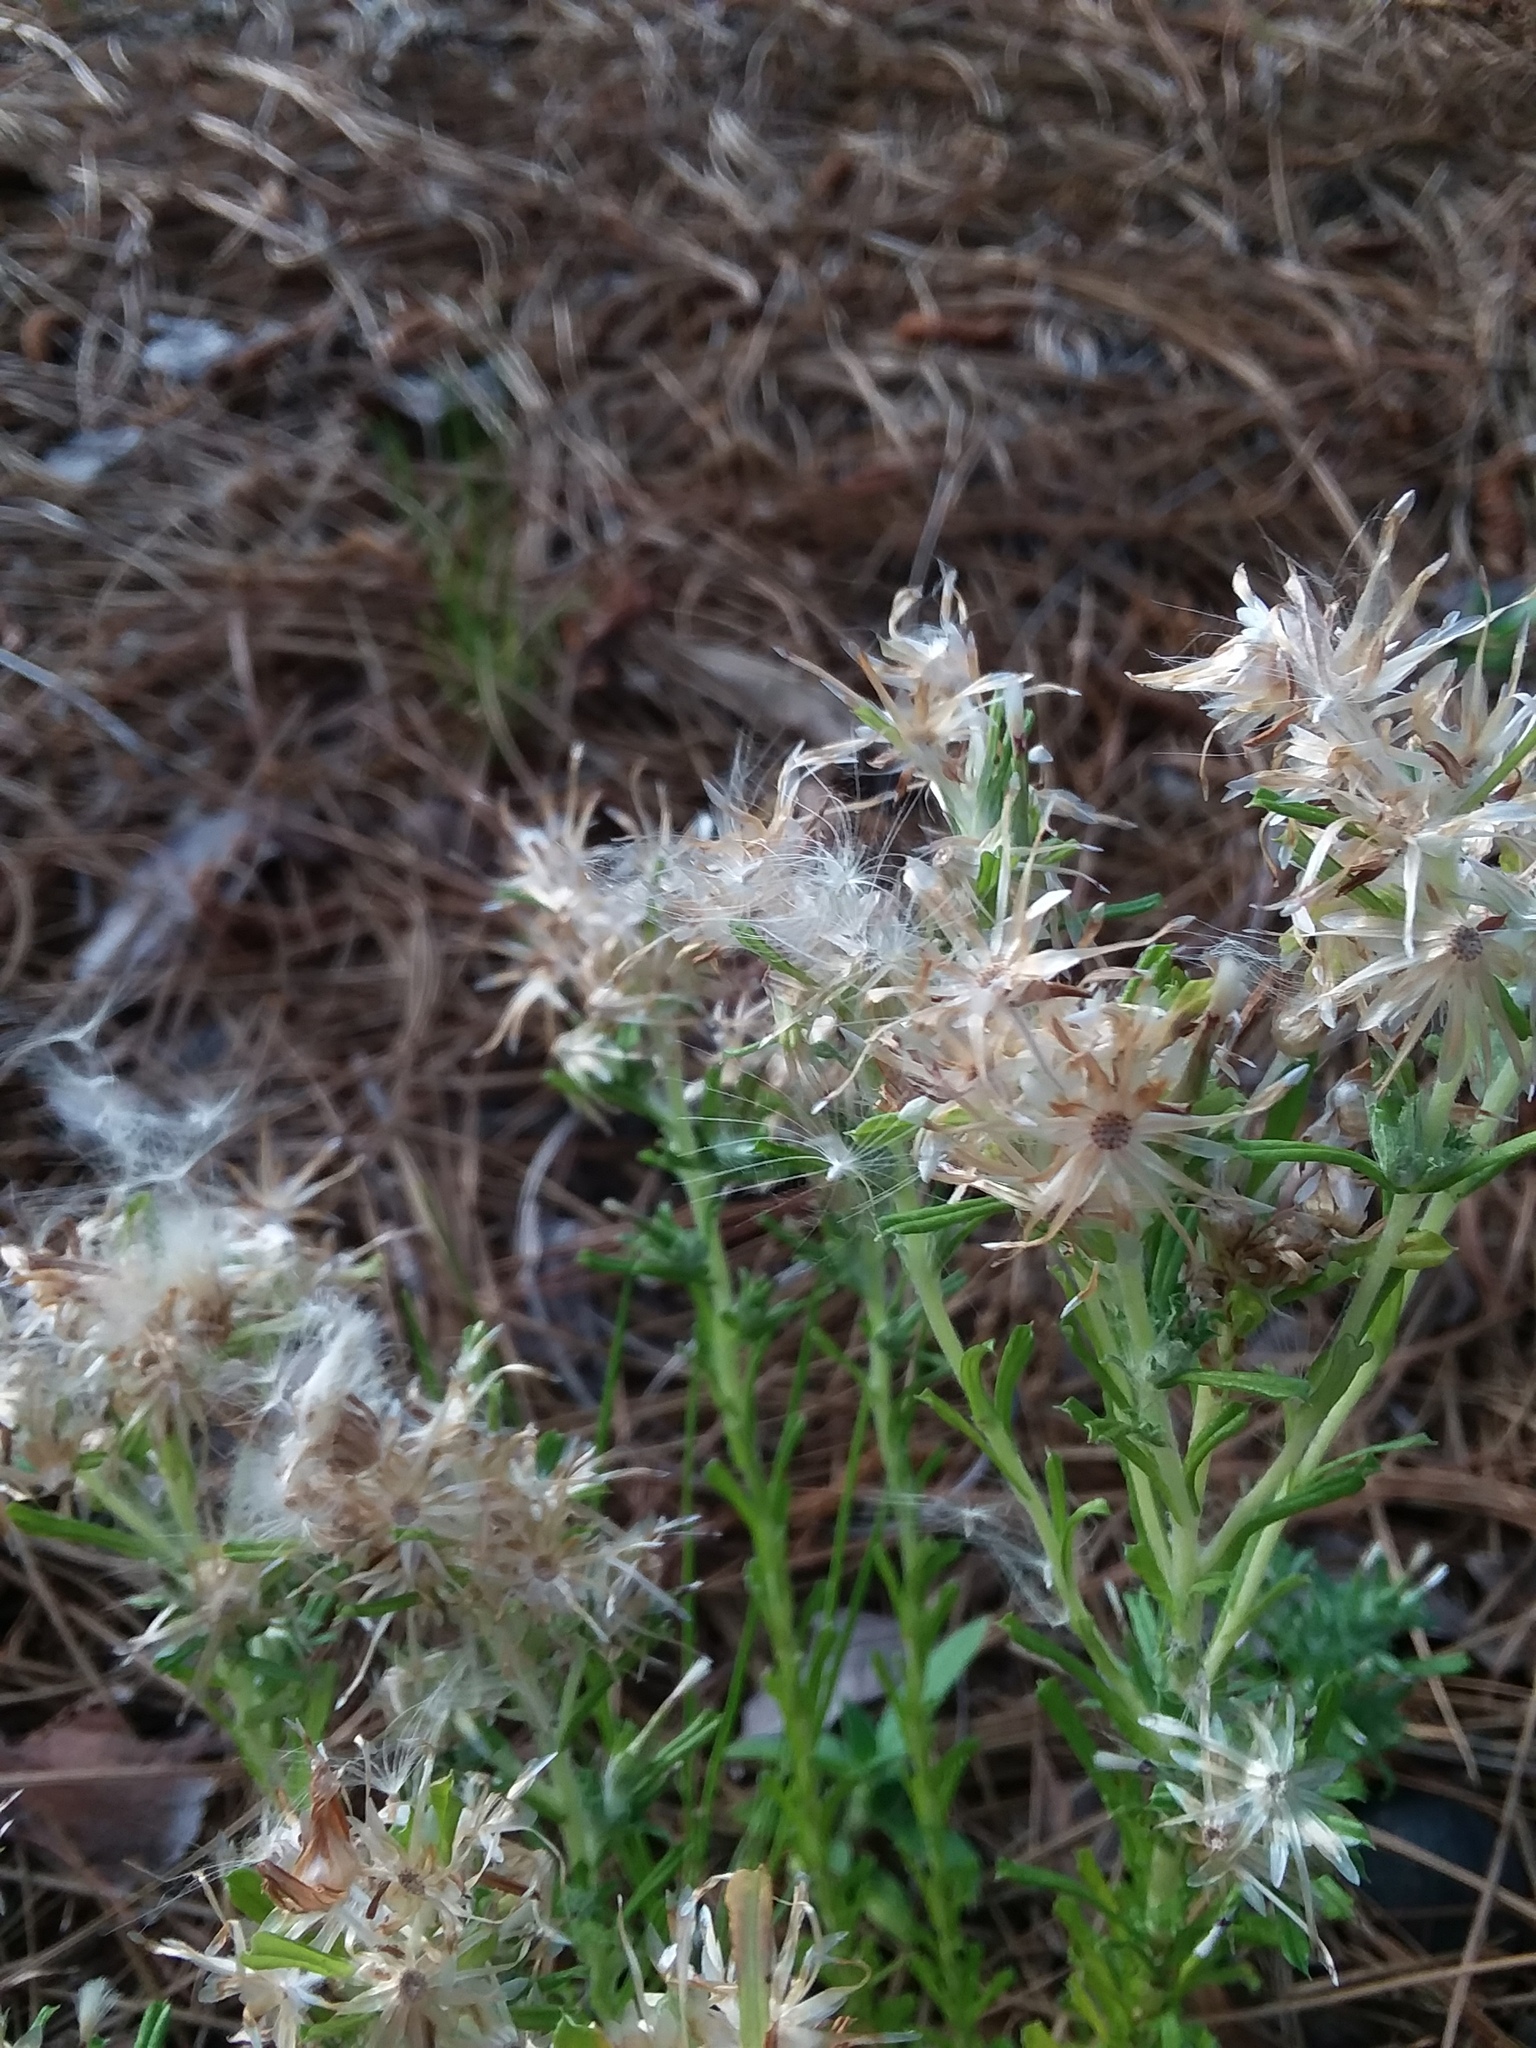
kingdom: Plantae
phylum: Tracheophyta
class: Magnoliopsida
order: Asterales
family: Asteraceae
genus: Facelis
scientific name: Facelis retusa
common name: Annual trampweed
